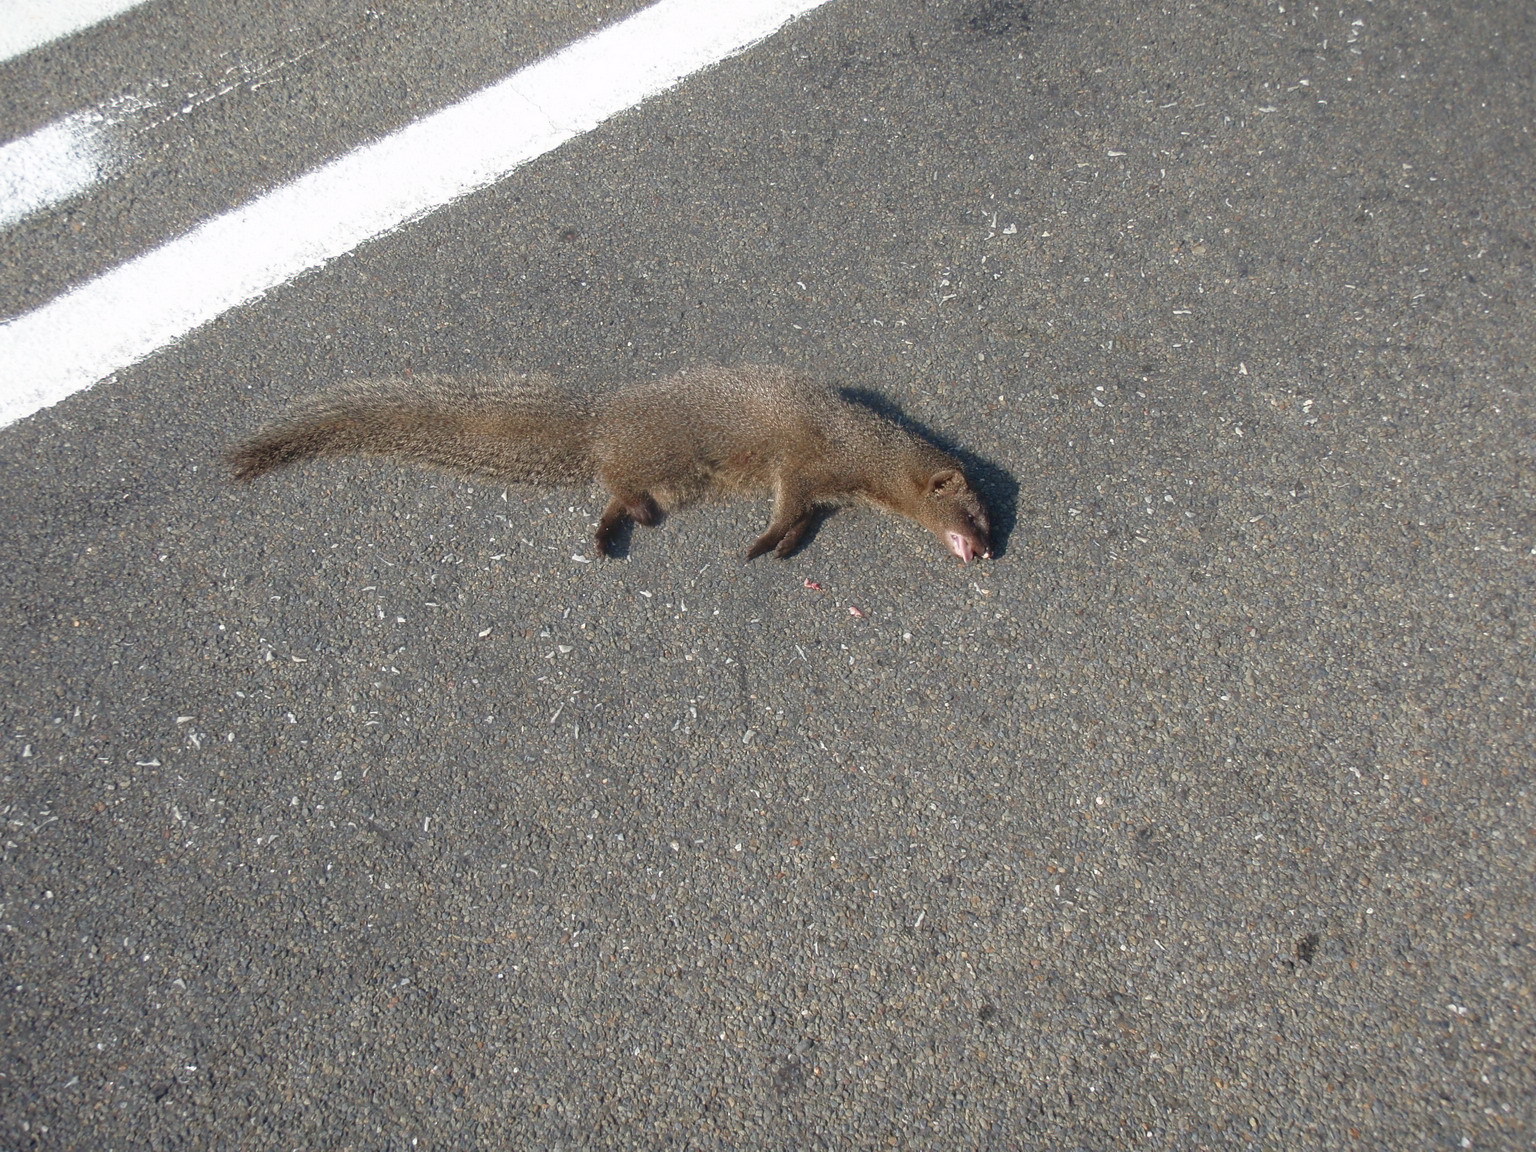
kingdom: Animalia
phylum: Chordata
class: Mammalia
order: Carnivora
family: Herpestidae
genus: Galerella
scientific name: Galerella pulverulenta
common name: Cape gray mongoose
